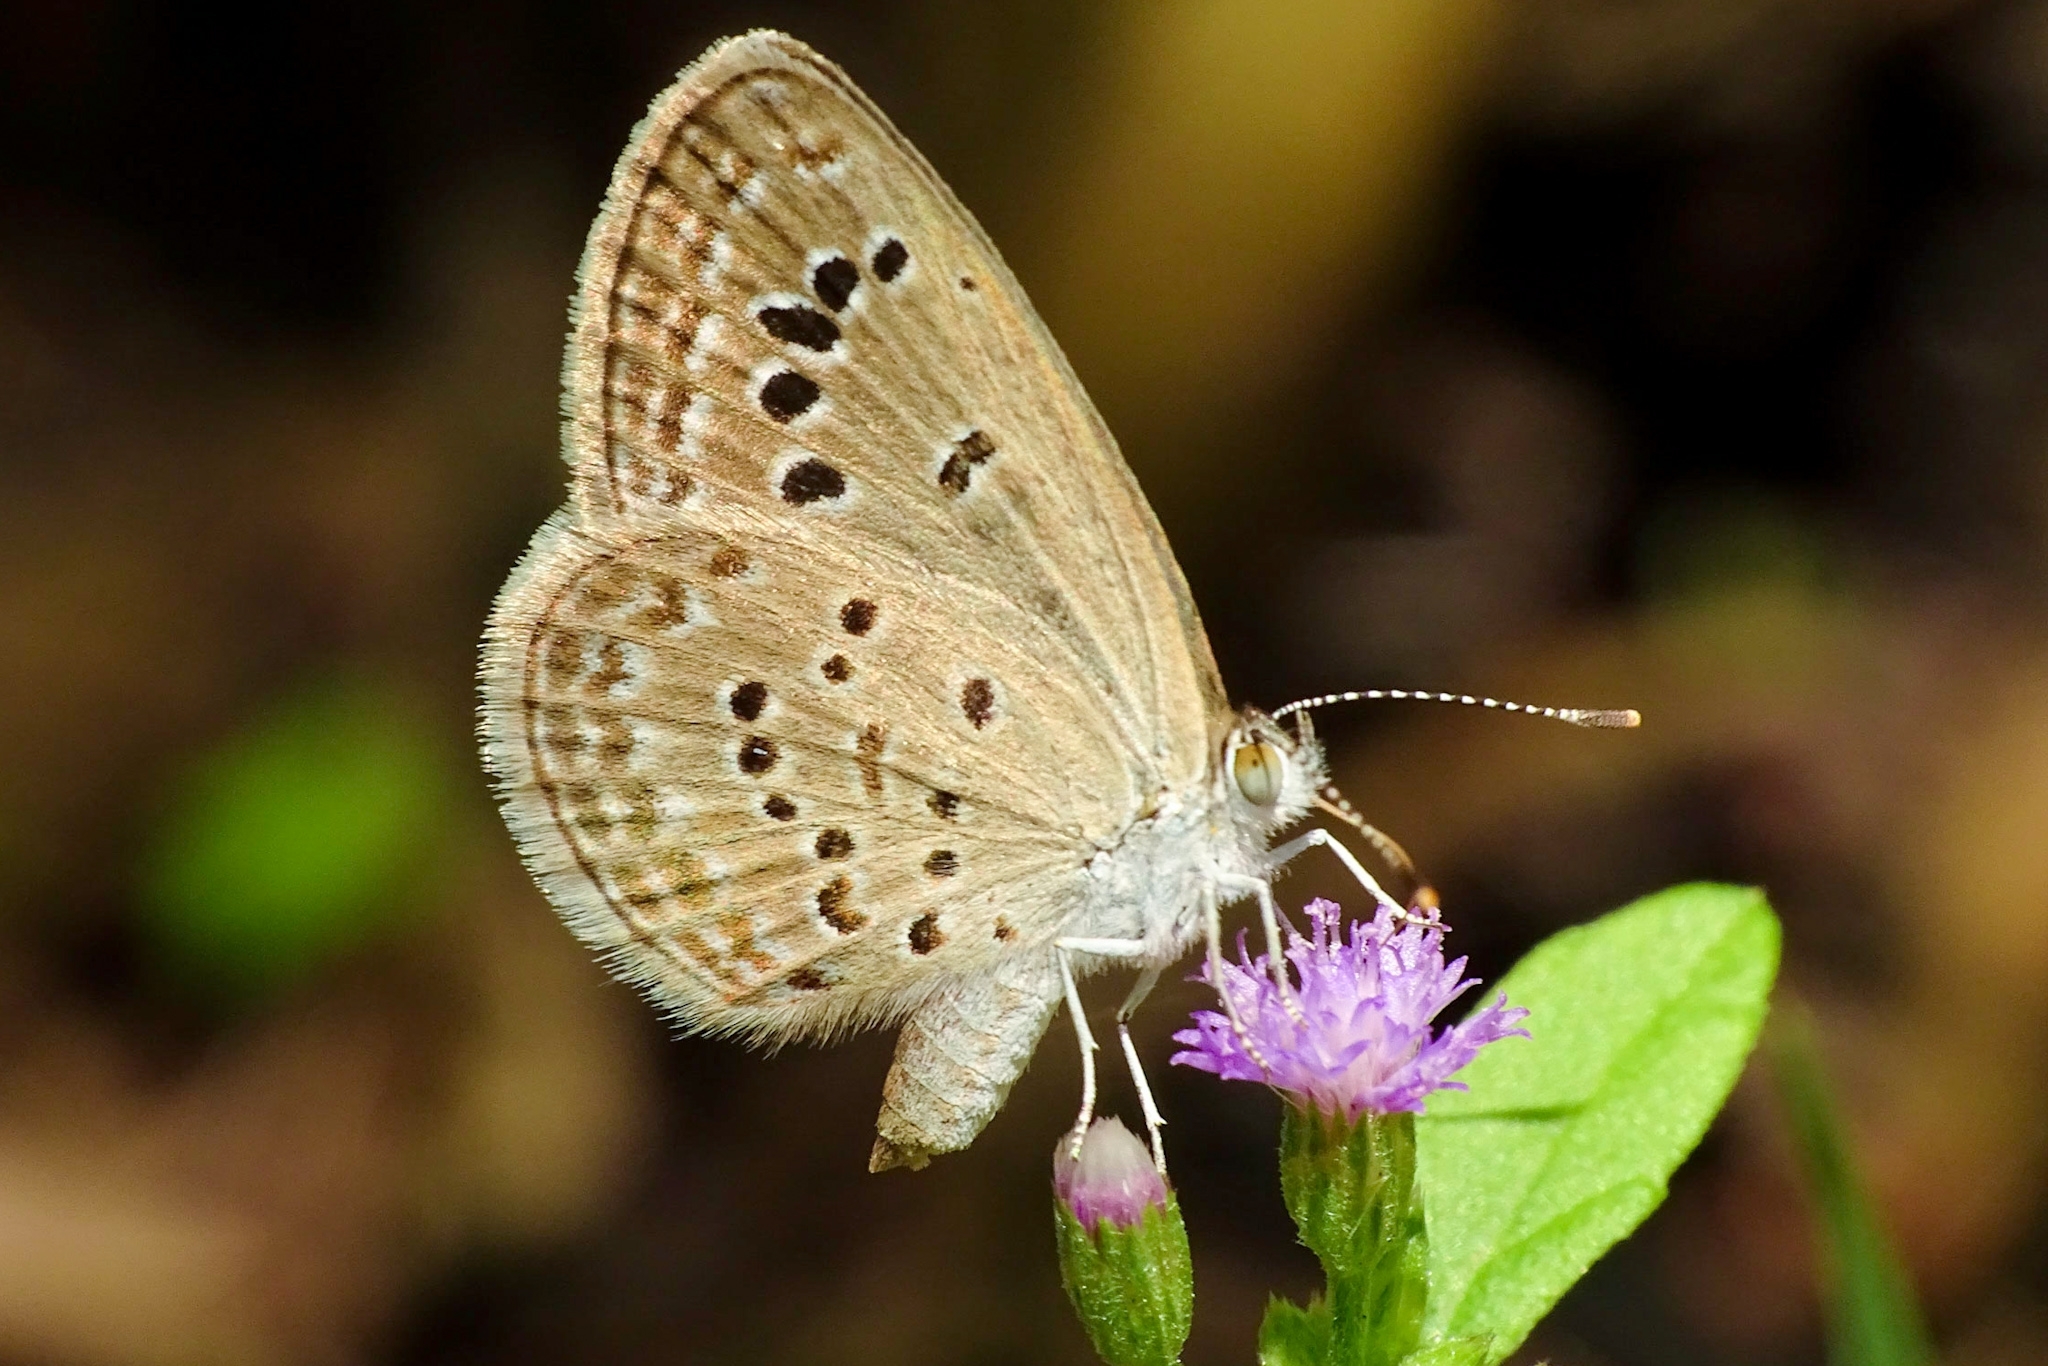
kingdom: Animalia
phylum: Arthropoda
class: Insecta
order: Lepidoptera
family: Lycaenidae
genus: Zizina
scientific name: Zizina otis
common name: Lesser grass blue
